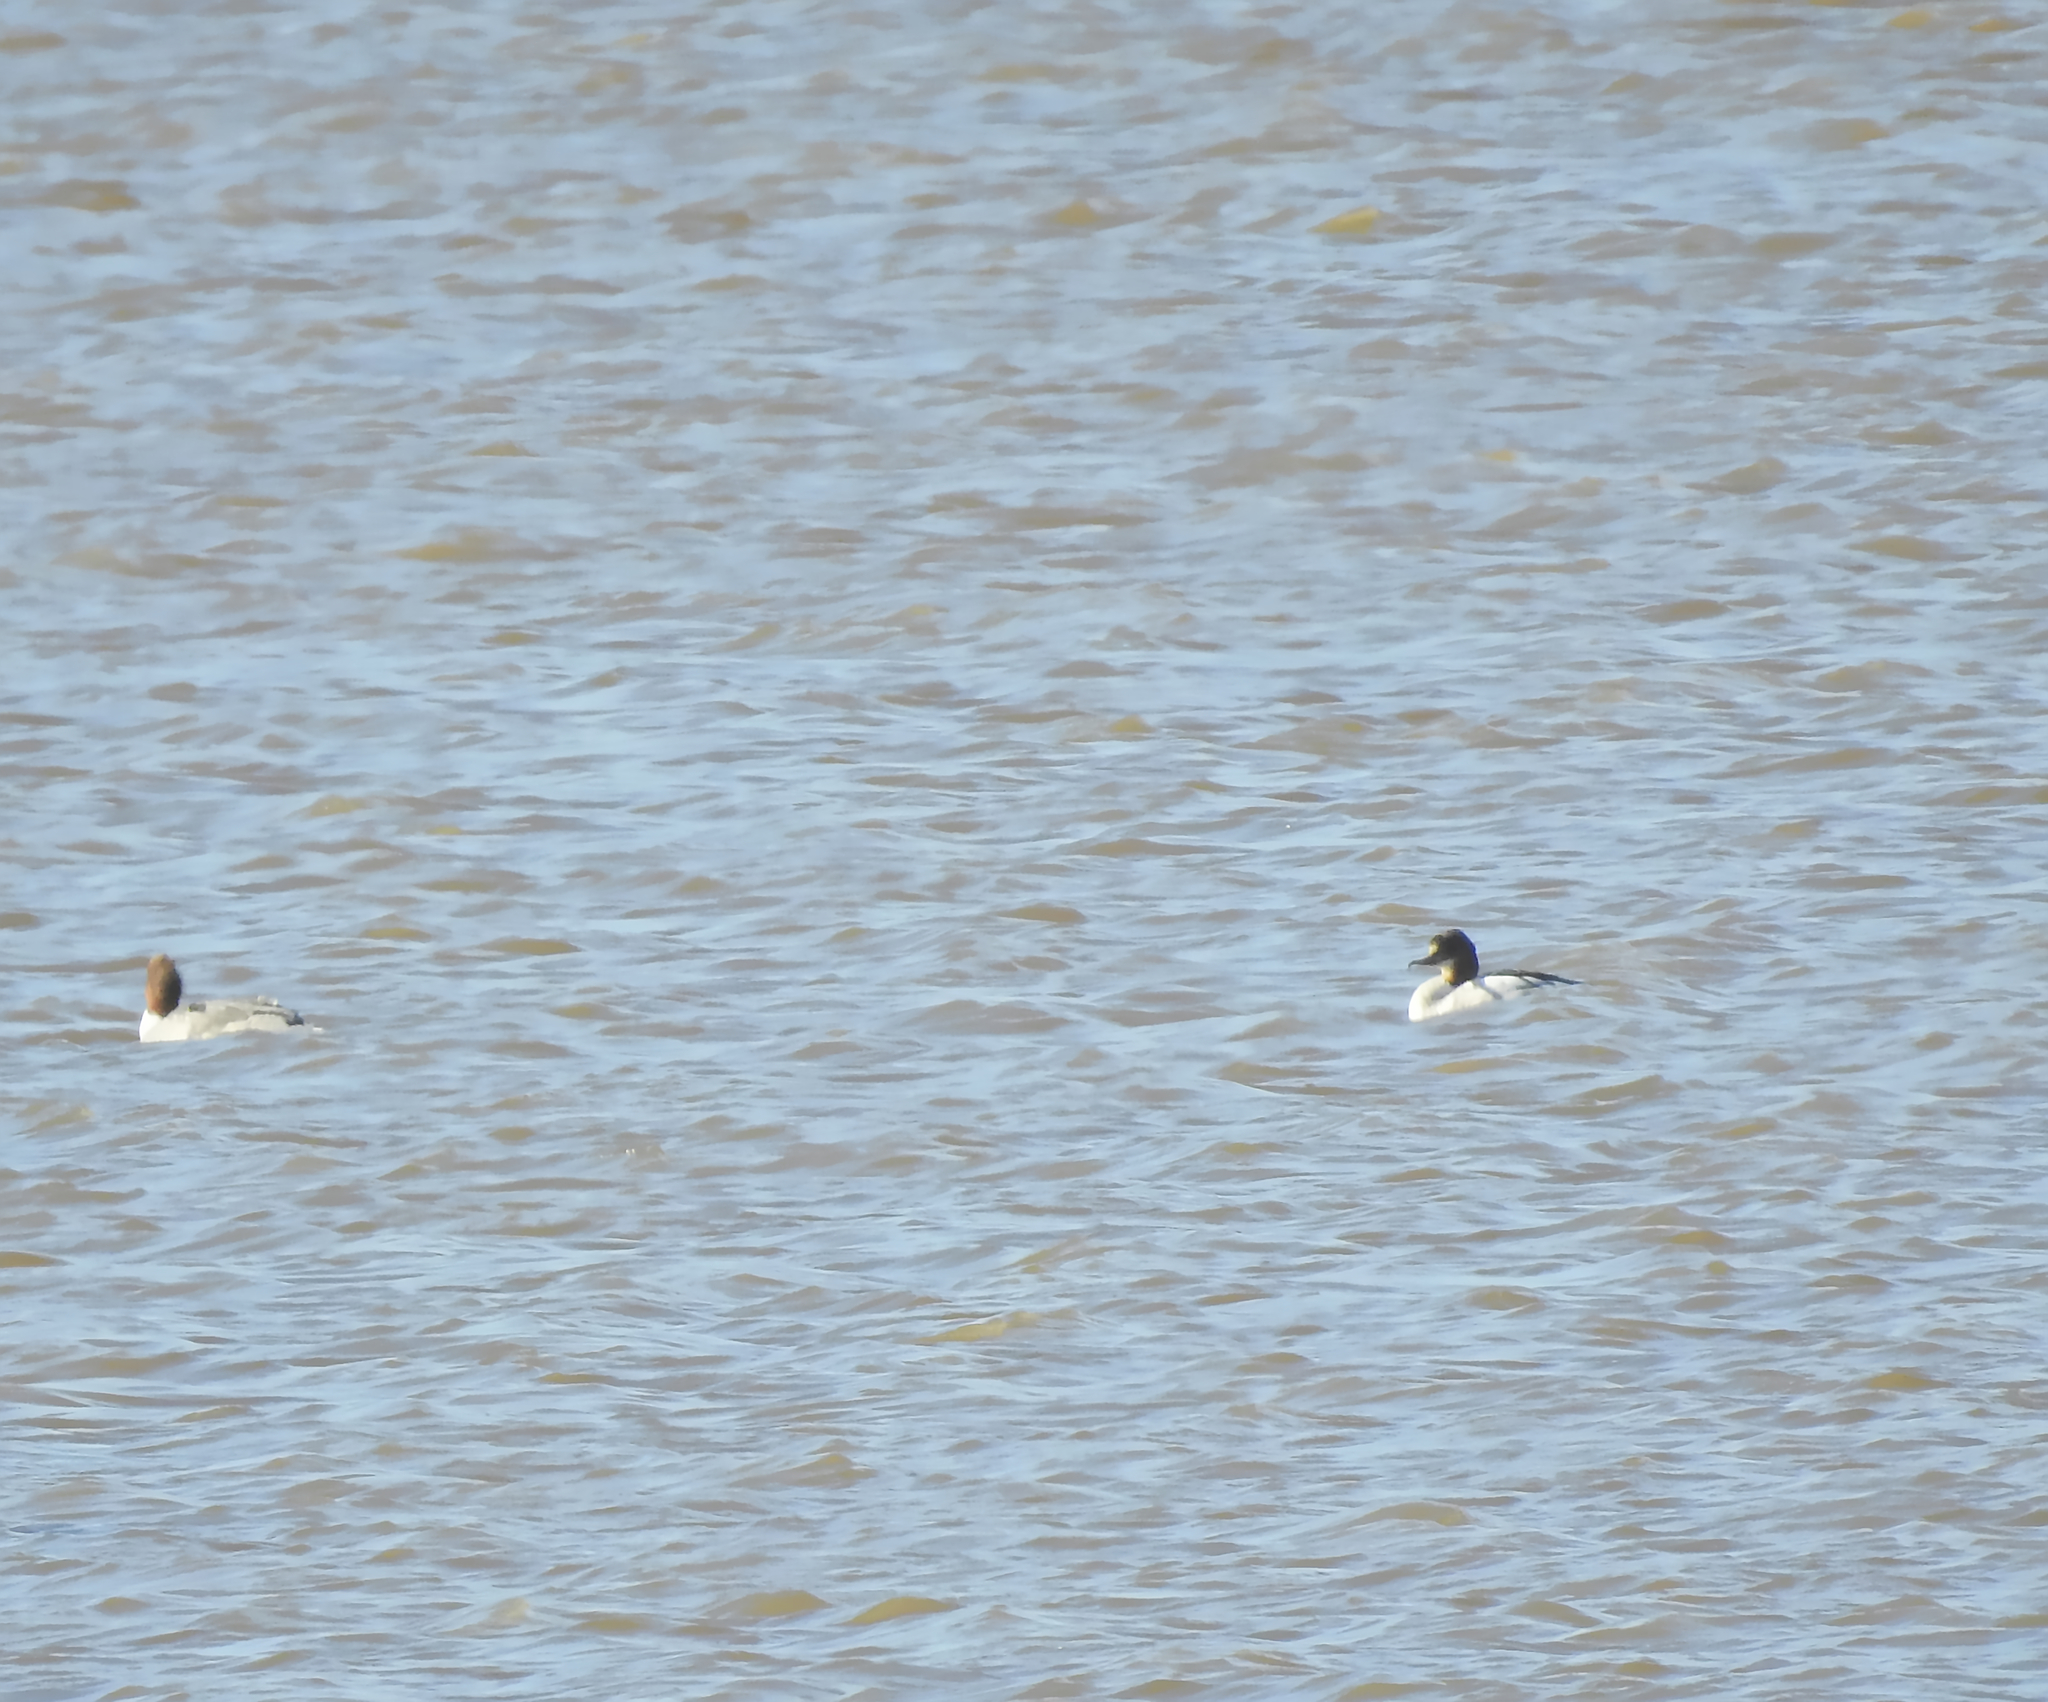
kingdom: Animalia
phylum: Chordata
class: Aves
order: Anseriformes
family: Anatidae
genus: Mergus
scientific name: Mergus merganser
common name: Common merganser
